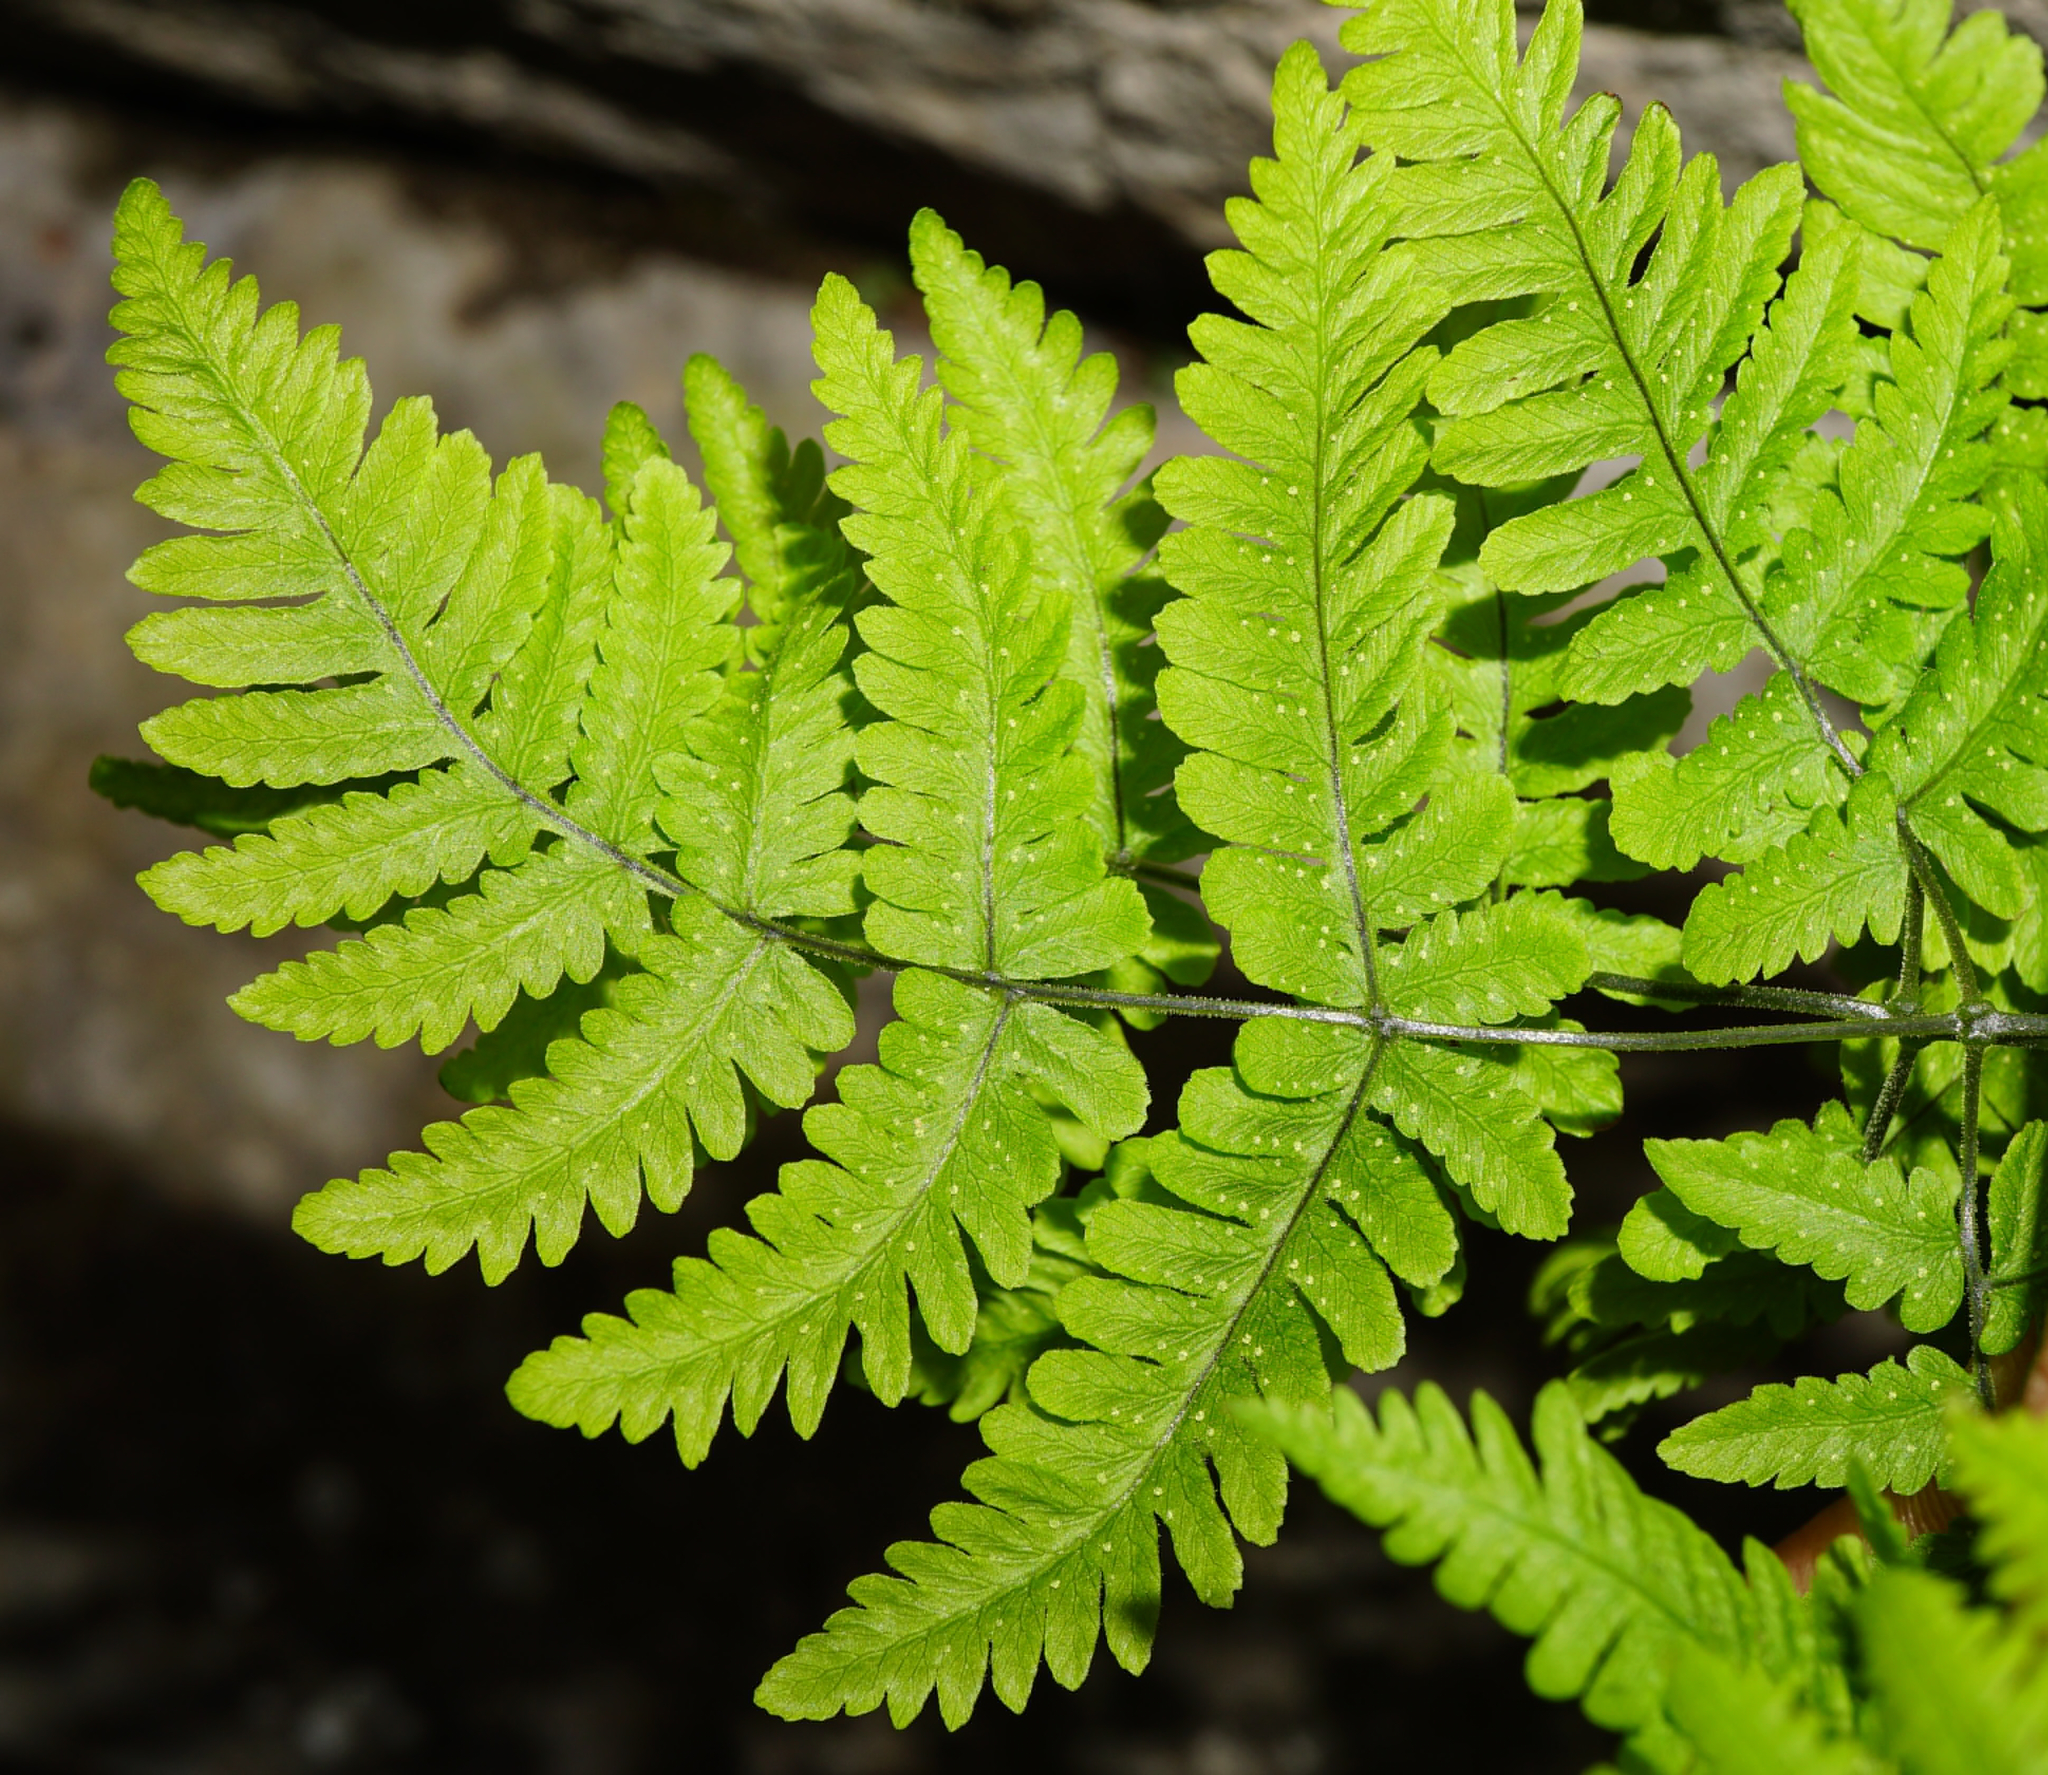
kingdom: Plantae
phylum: Tracheophyta
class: Polypodiopsida
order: Polypodiales
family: Cystopteridaceae
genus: Gymnocarpium
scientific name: Gymnocarpium robertianum
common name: Limestone fern
